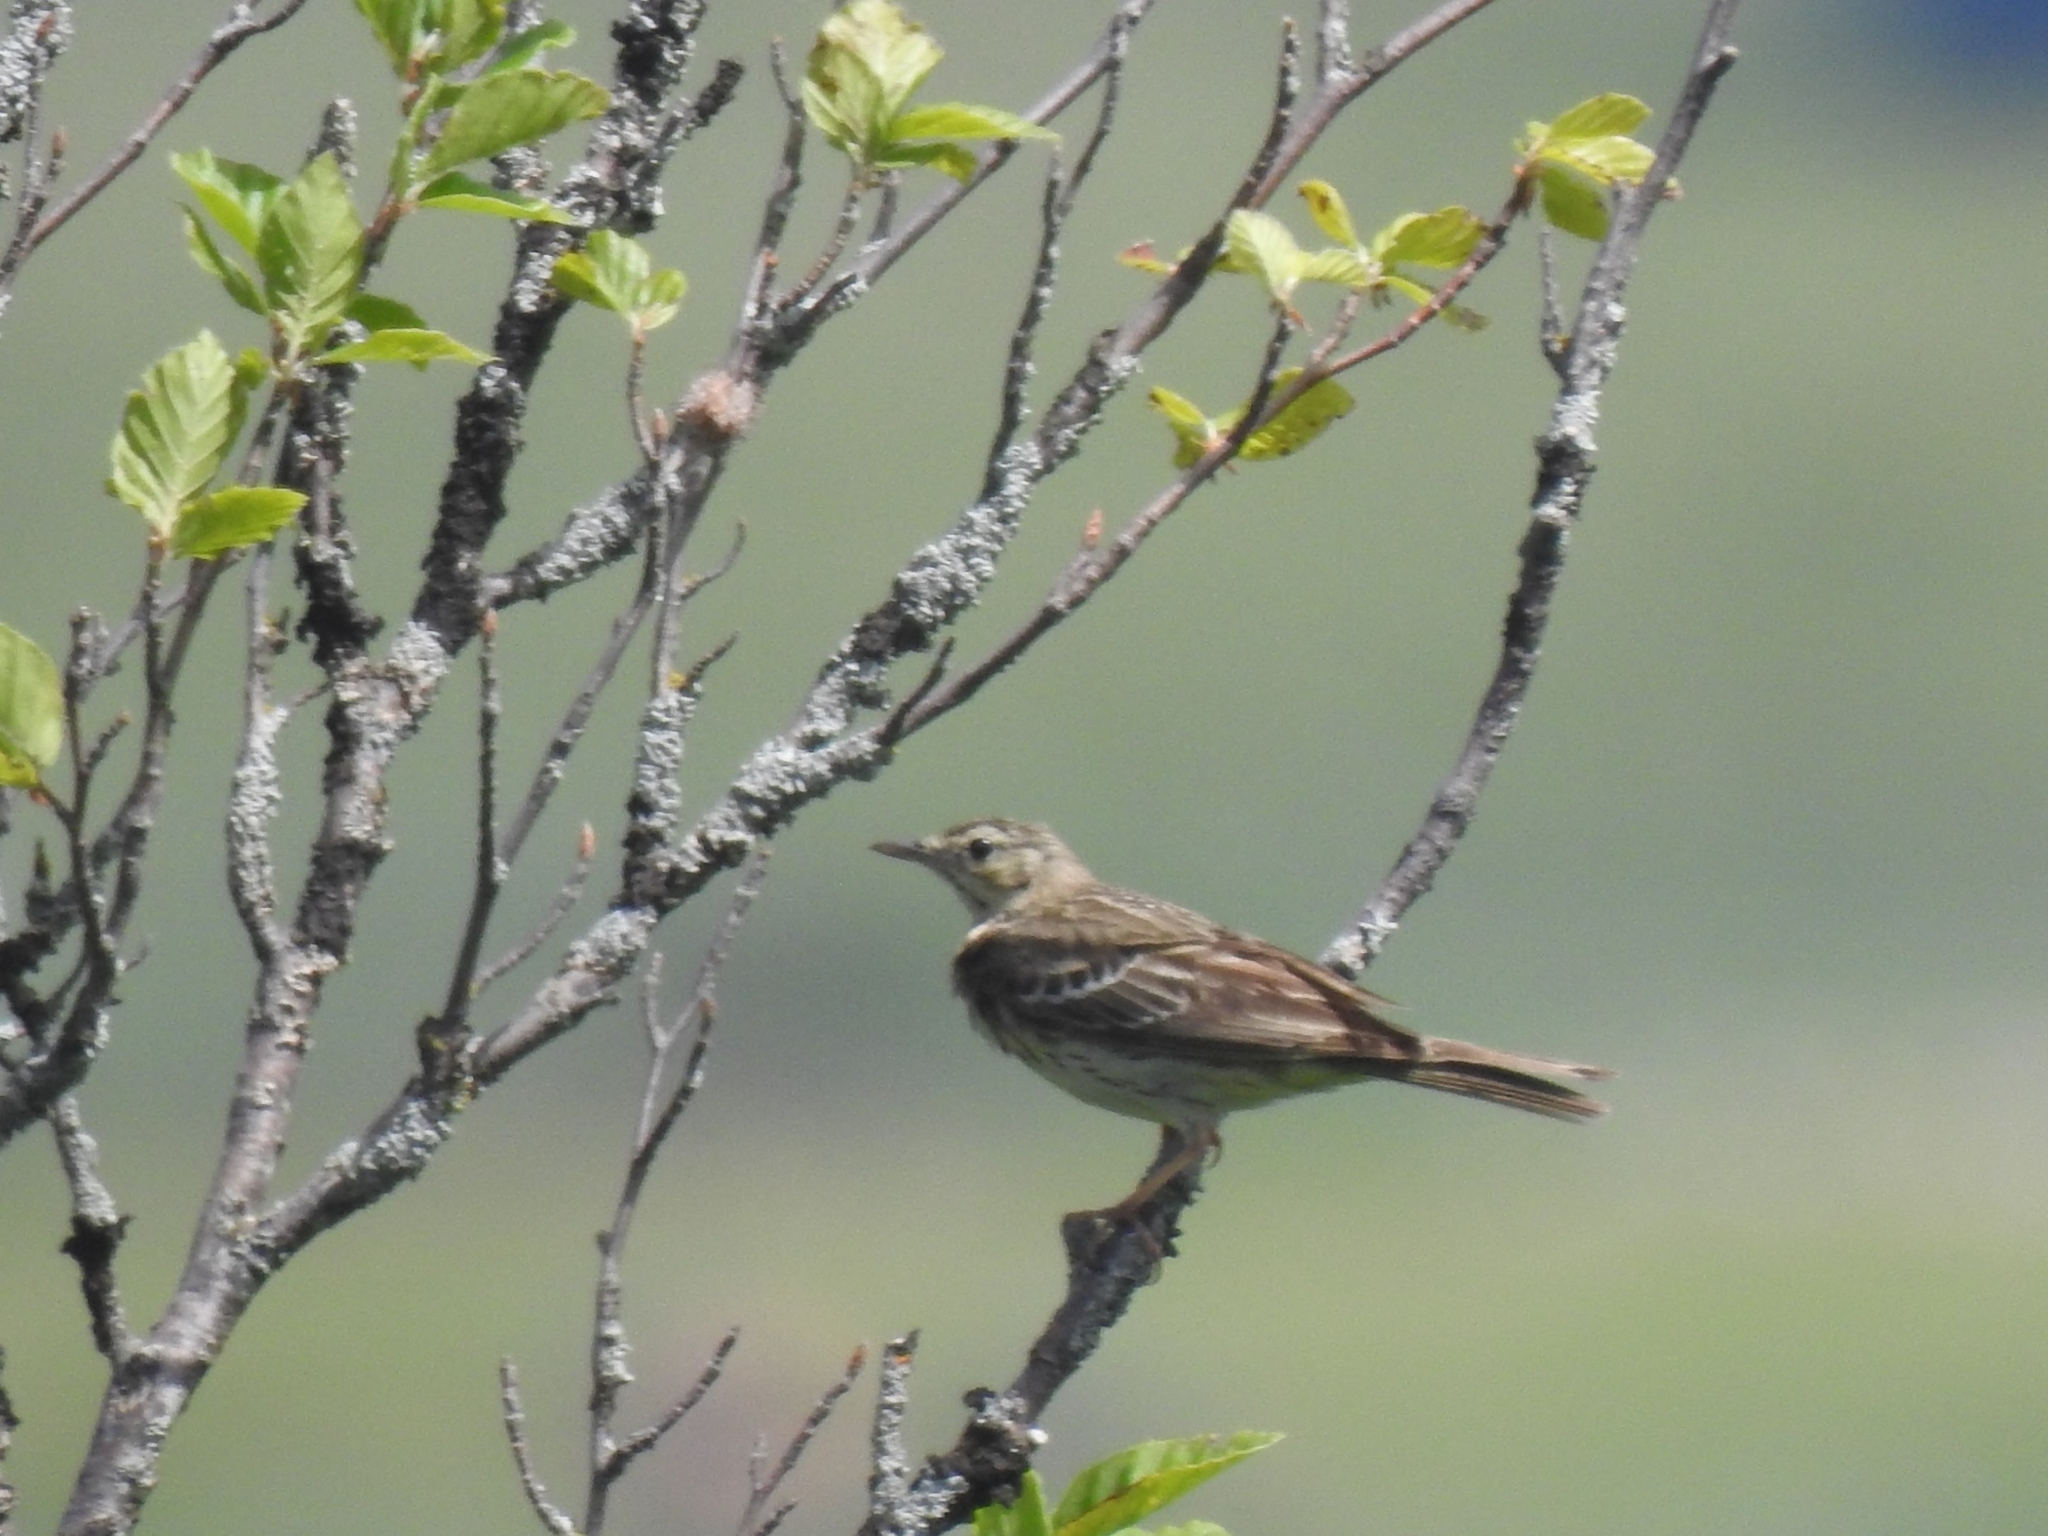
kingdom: Animalia
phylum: Chordata
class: Aves
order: Passeriformes
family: Motacillidae
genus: Anthus
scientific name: Anthus trivialis
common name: Tree pipit
